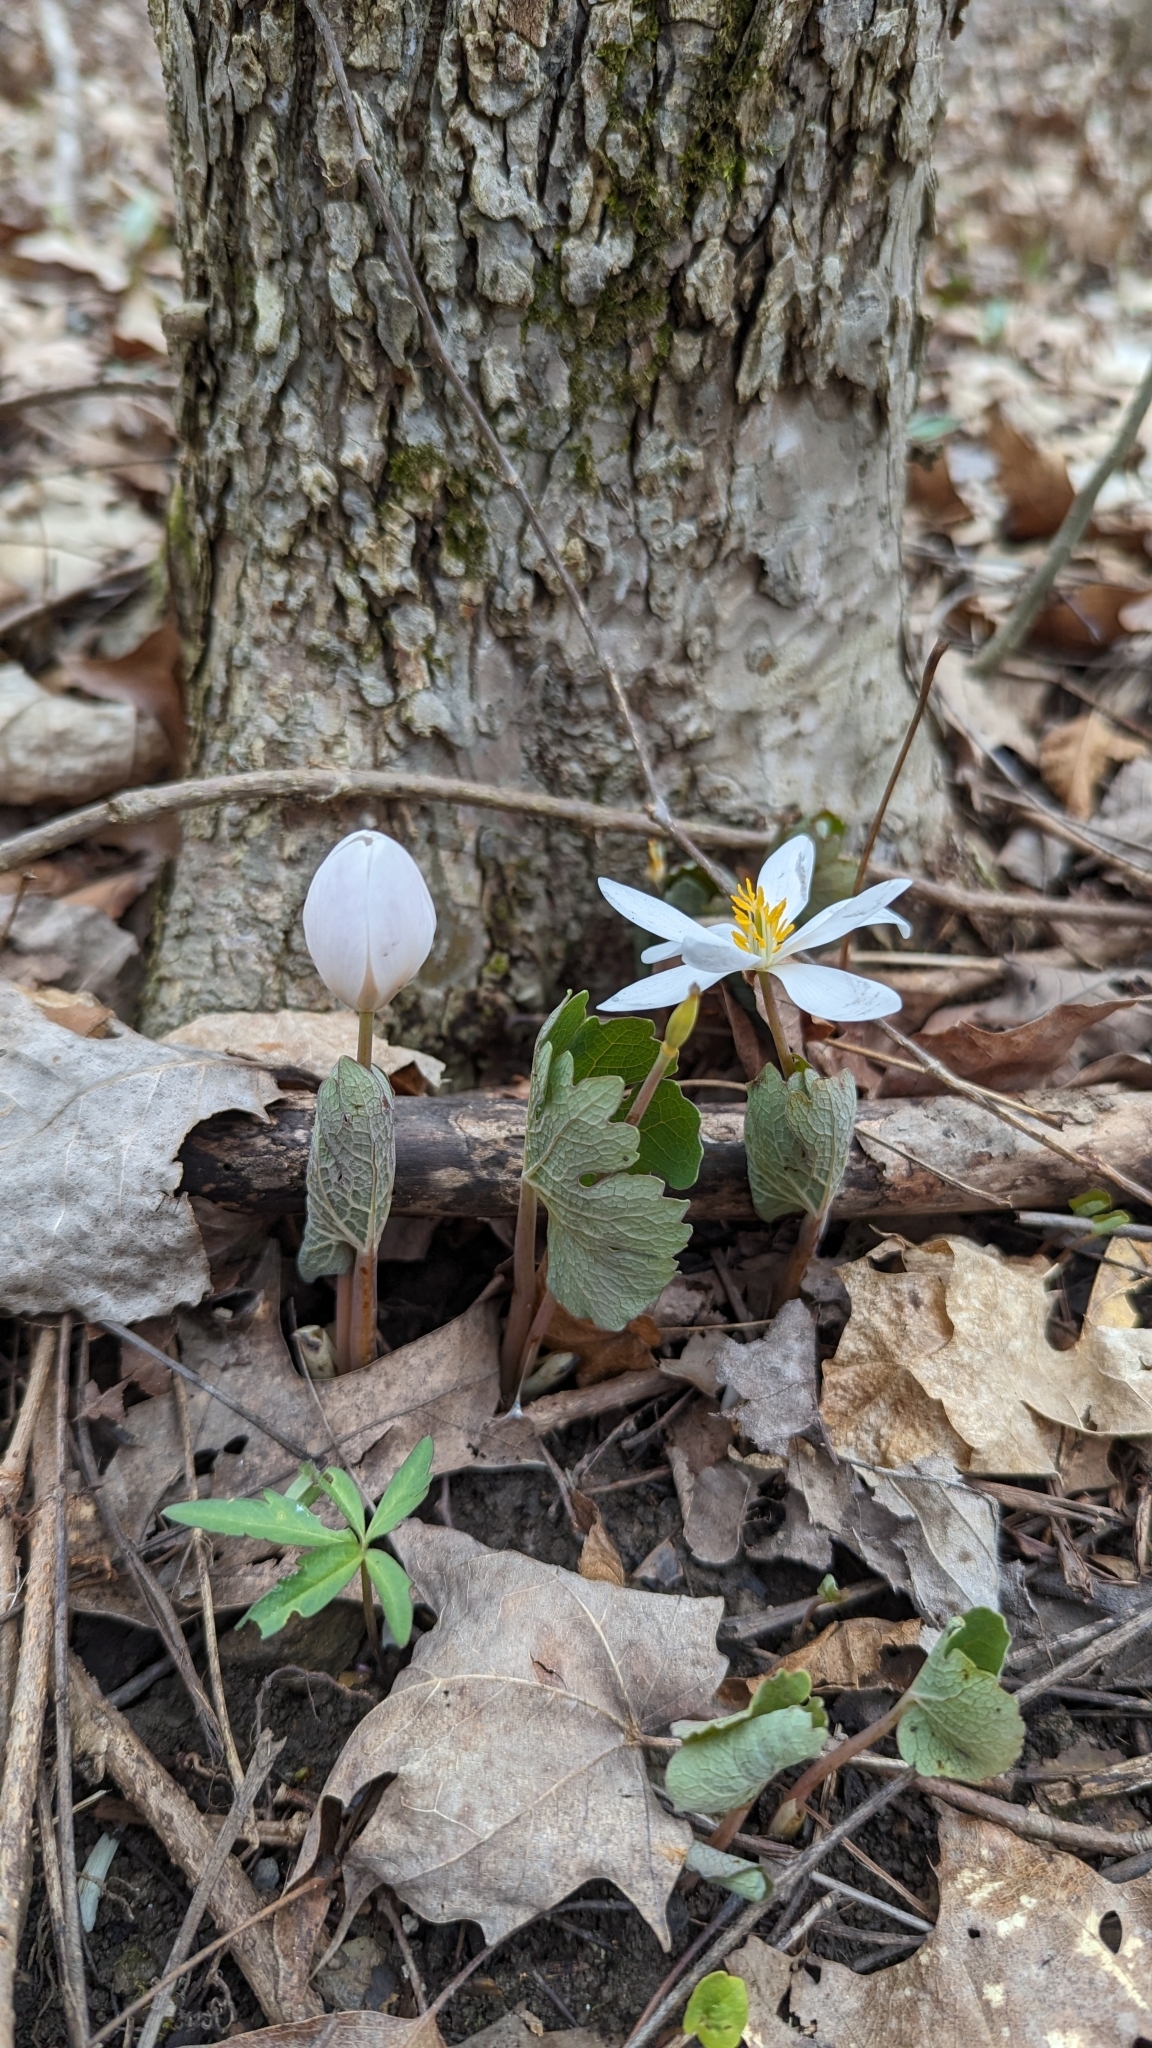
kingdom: Plantae
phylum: Tracheophyta
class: Magnoliopsida
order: Ranunculales
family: Papaveraceae
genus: Sanguinaria
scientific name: Sanguinaria canadensis
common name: Bloodroot
